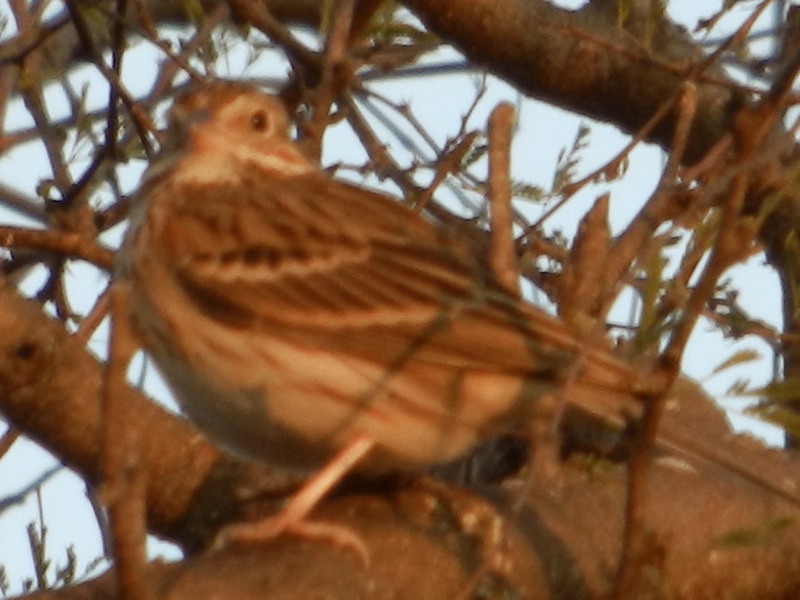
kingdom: Animalia
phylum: Chordata
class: Aves
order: Passeriformes
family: Passerellidae
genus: Pooecetes
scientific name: Pooecetes gramineus
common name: Vesper sparrow
